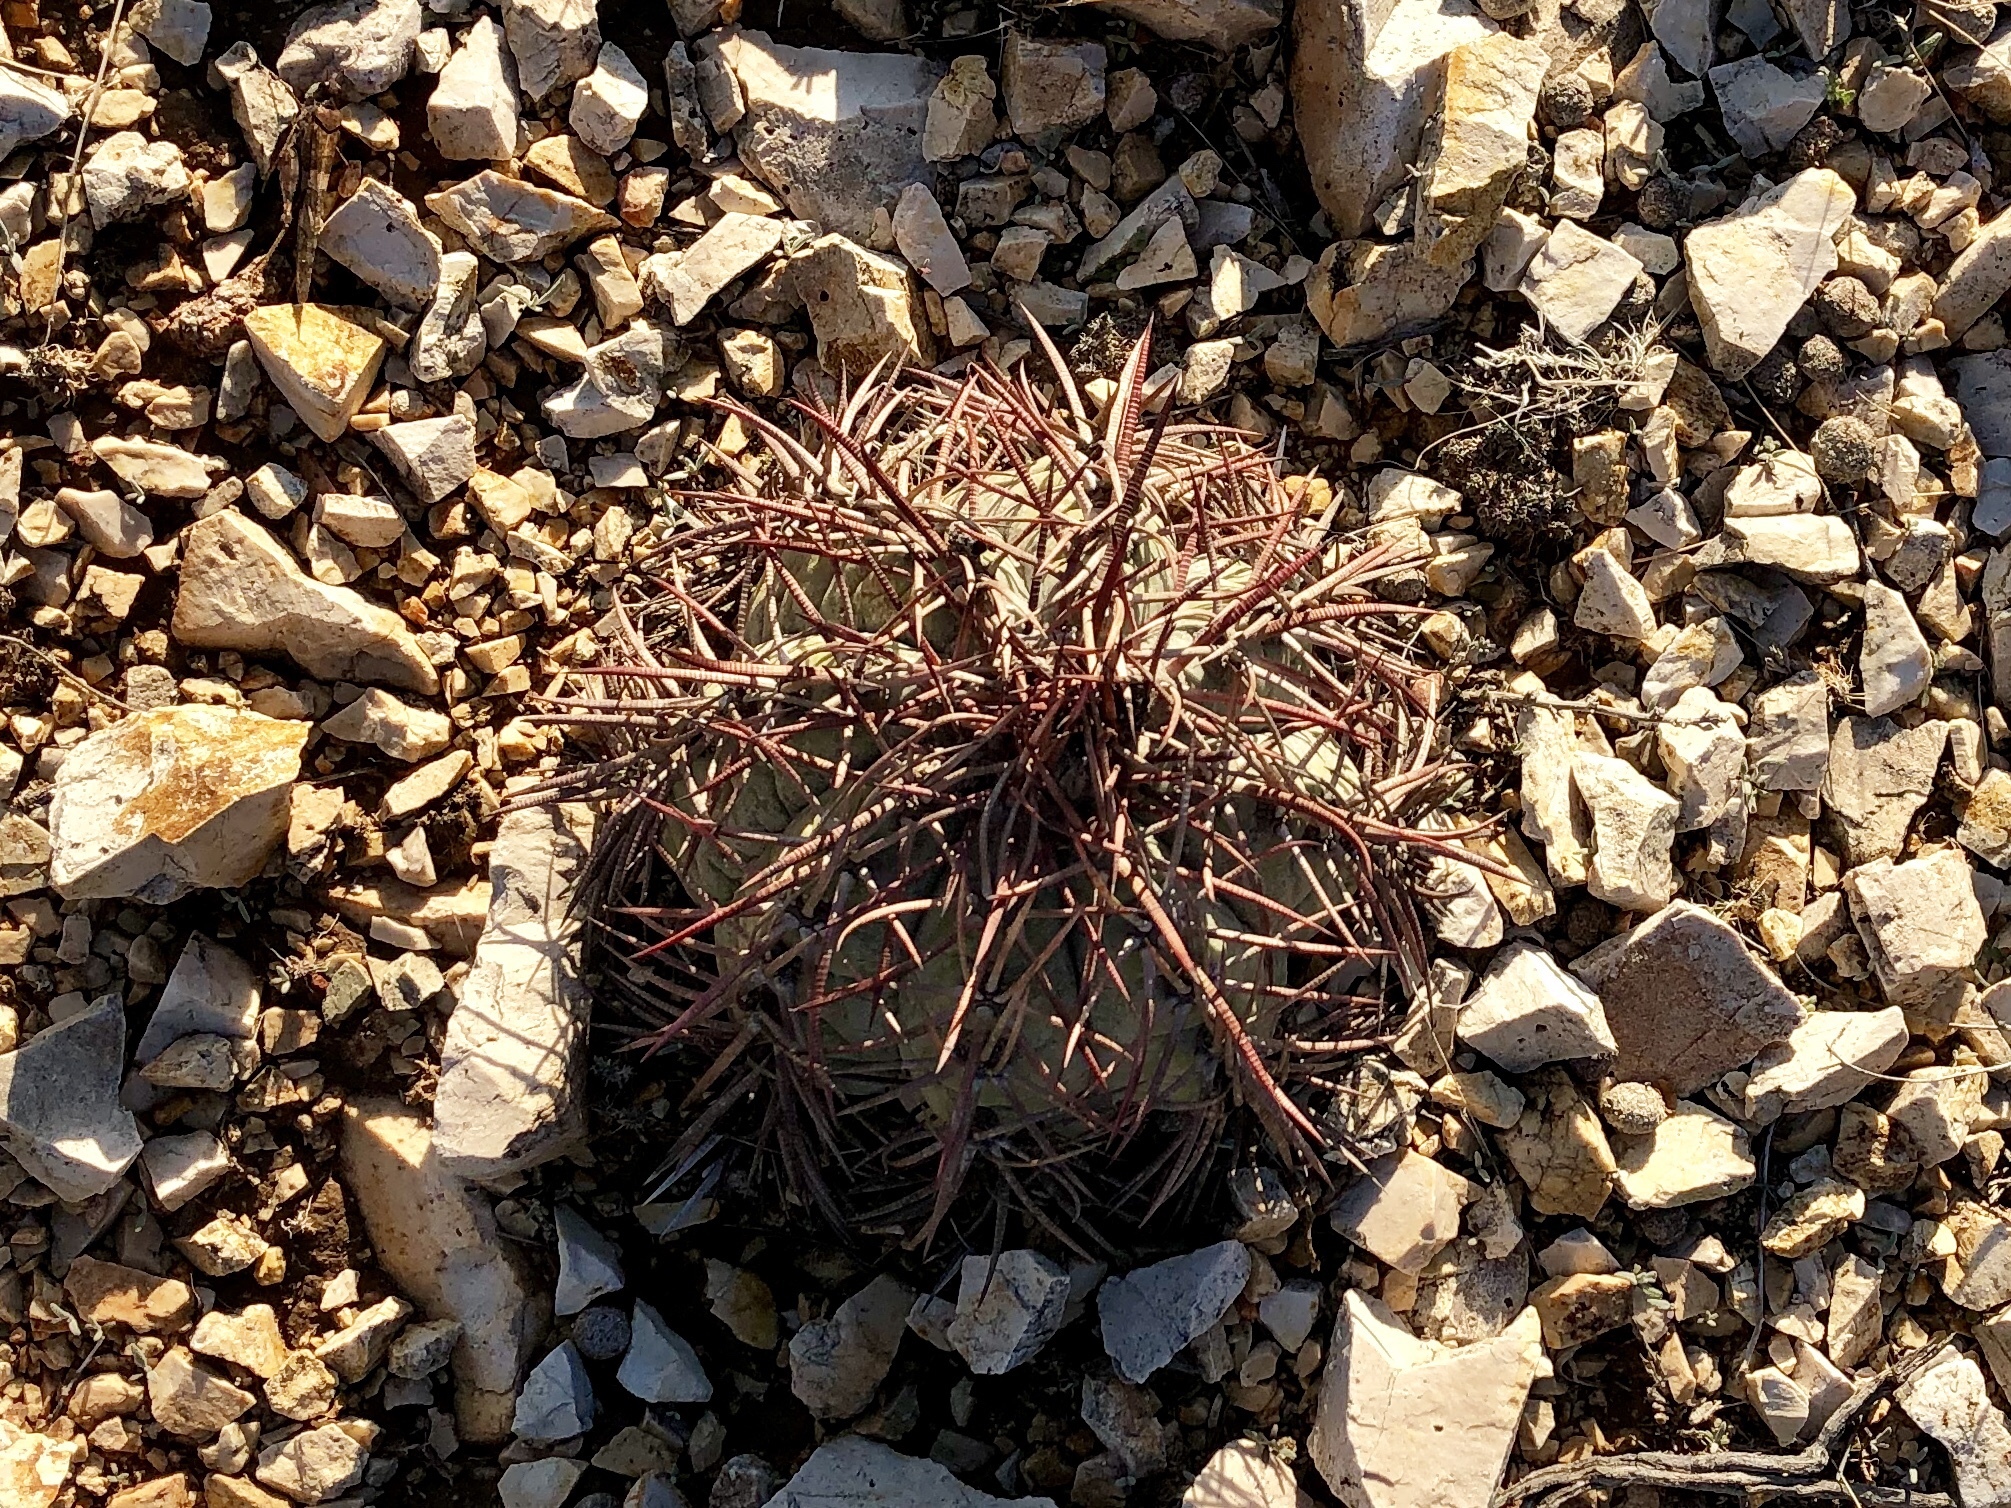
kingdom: Plantae
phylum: Tracheophyta
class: Magnoliopsida
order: Caryophyllales
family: Cactaceae
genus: Echinocactus
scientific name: Echinocactus horizonthalonius
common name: Devilshead
